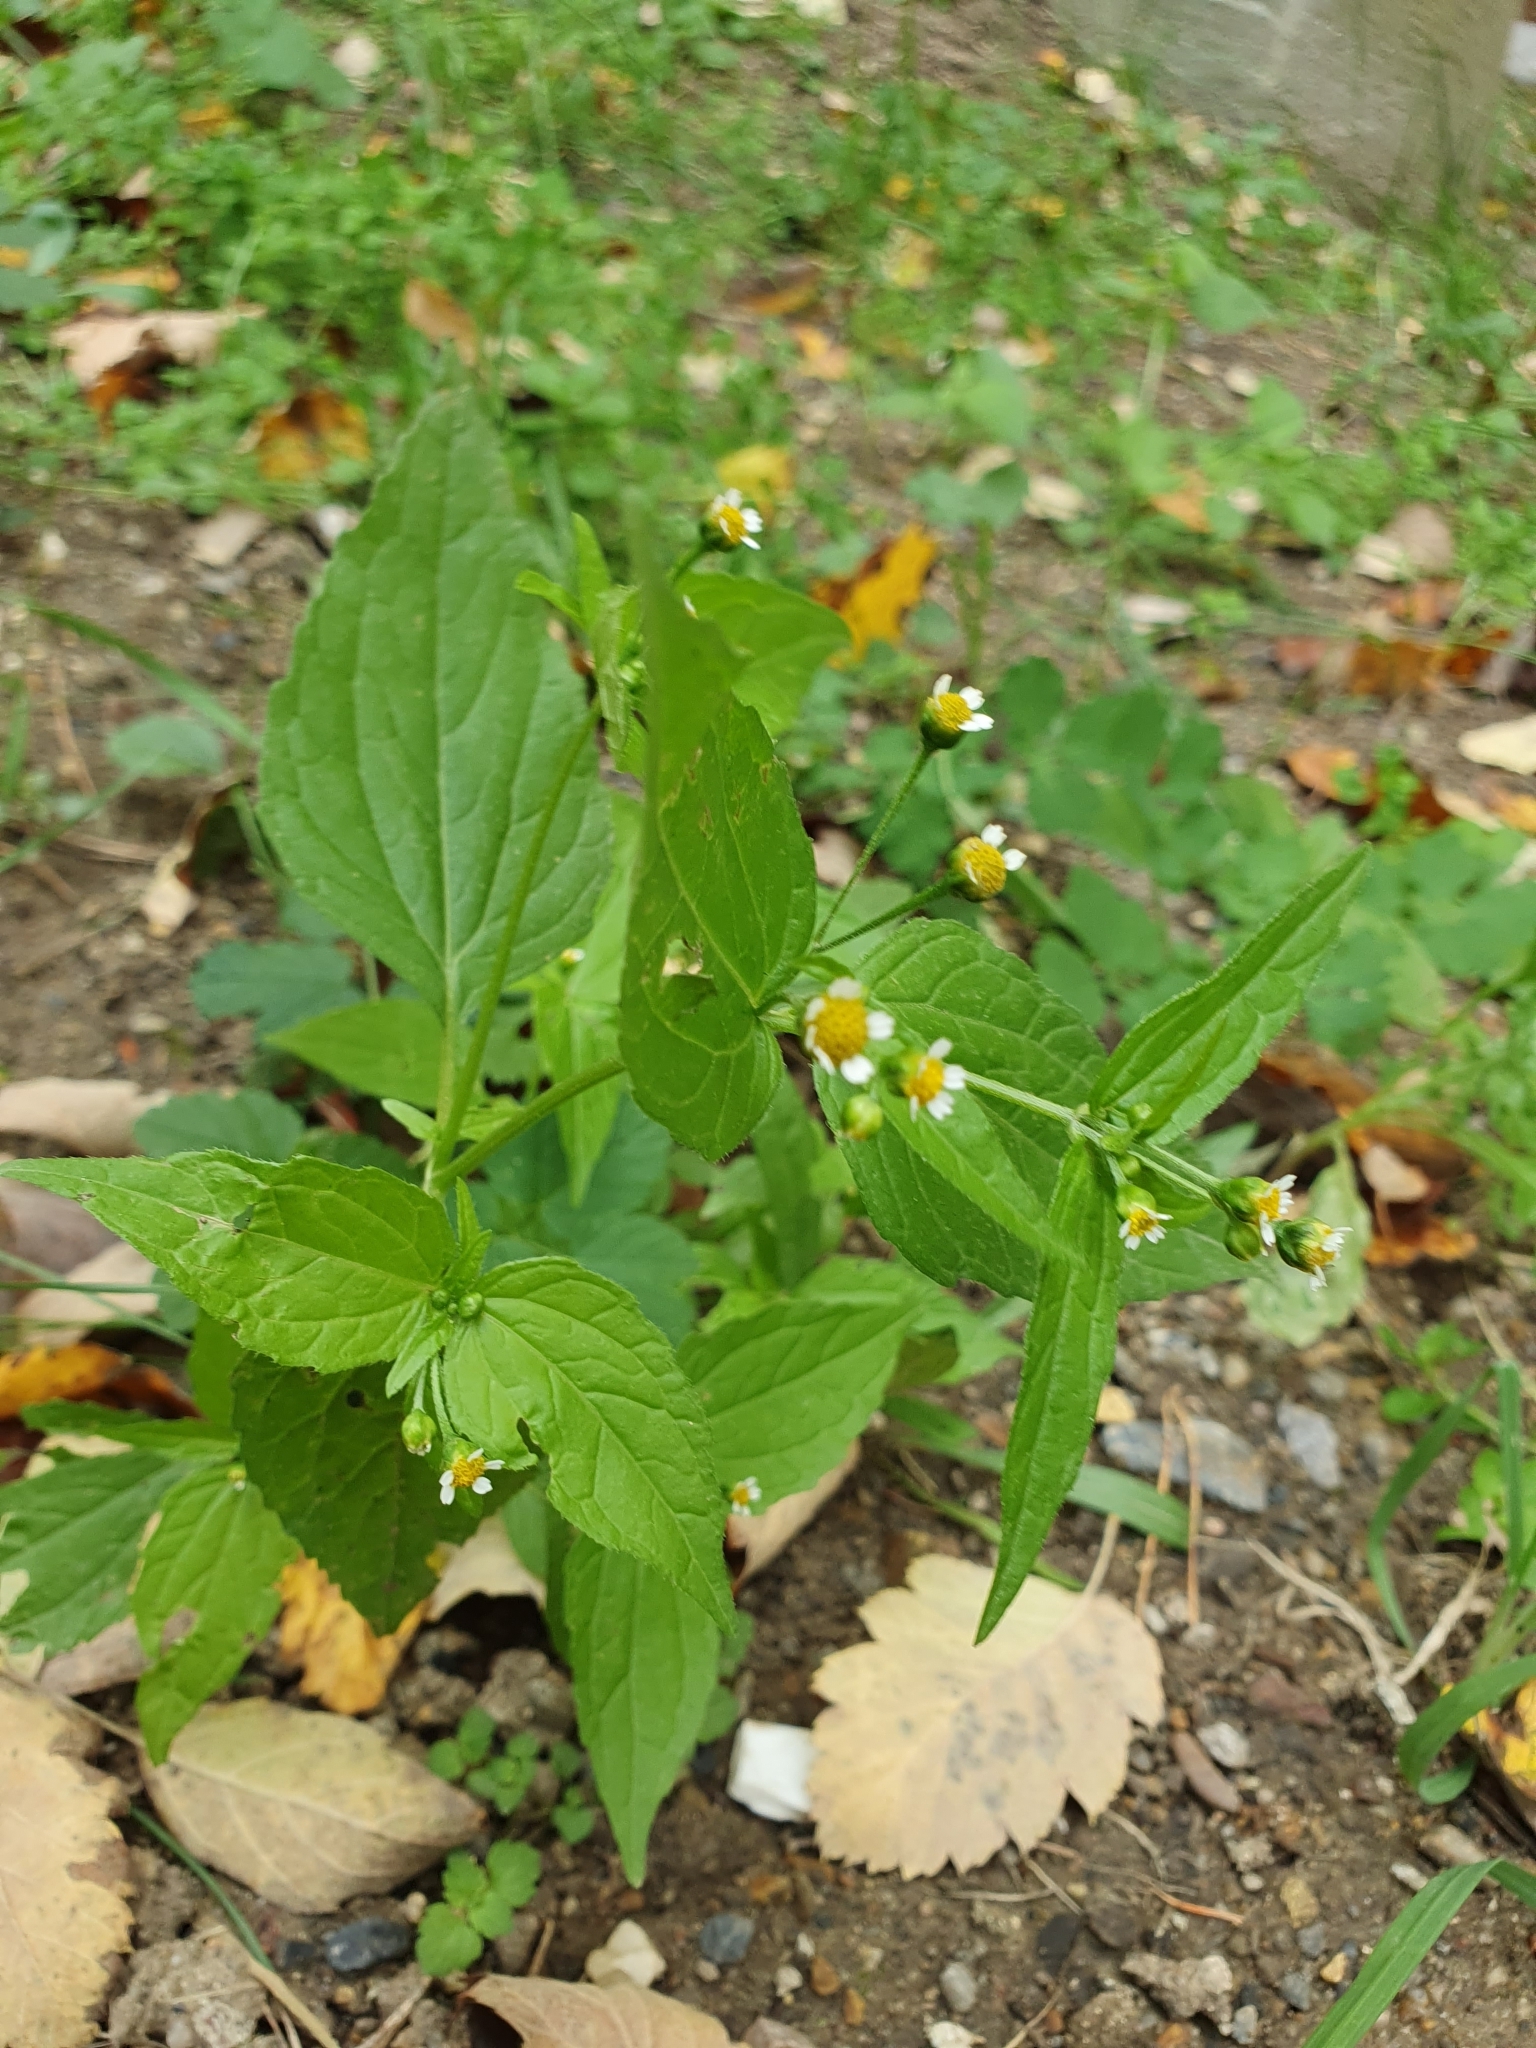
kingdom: Plantae
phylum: Tracheophyta
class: Magnoliopsida
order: Asterales
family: Asteraceae
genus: Galinsoga
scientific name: Galinsoga parviflora
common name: Gallant soldier
